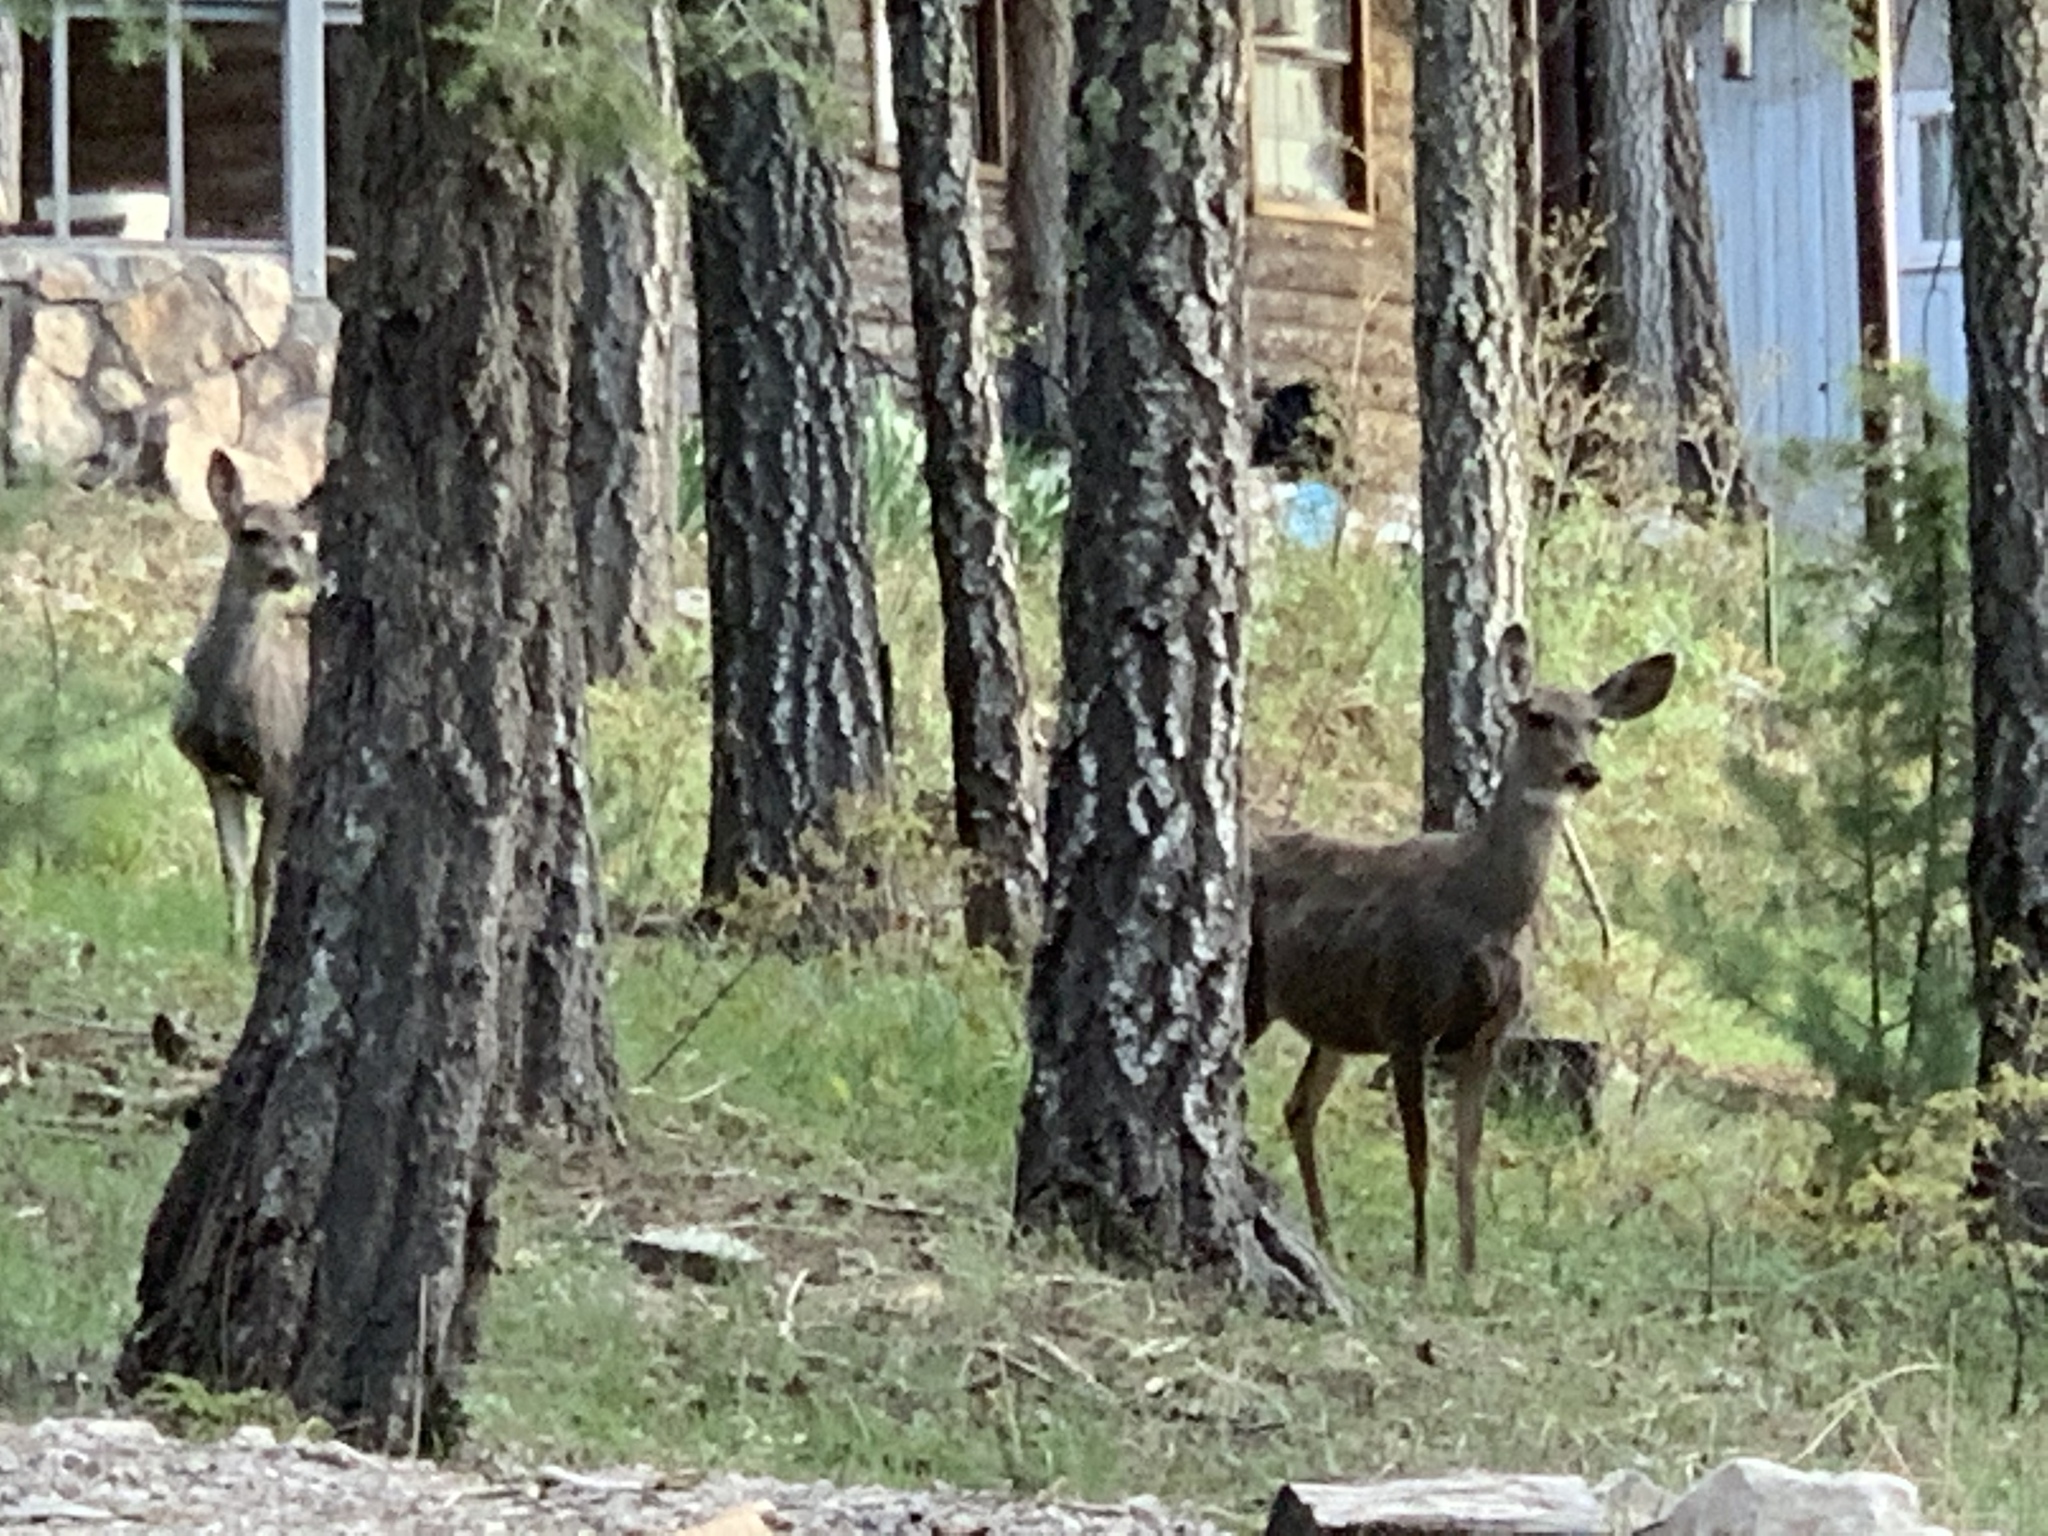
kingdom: Animalia
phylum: Chordata
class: Mammalia
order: Artiodactyla
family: Cervidae
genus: Odocoileus
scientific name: Odocoileus hemionus
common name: Mule deer
